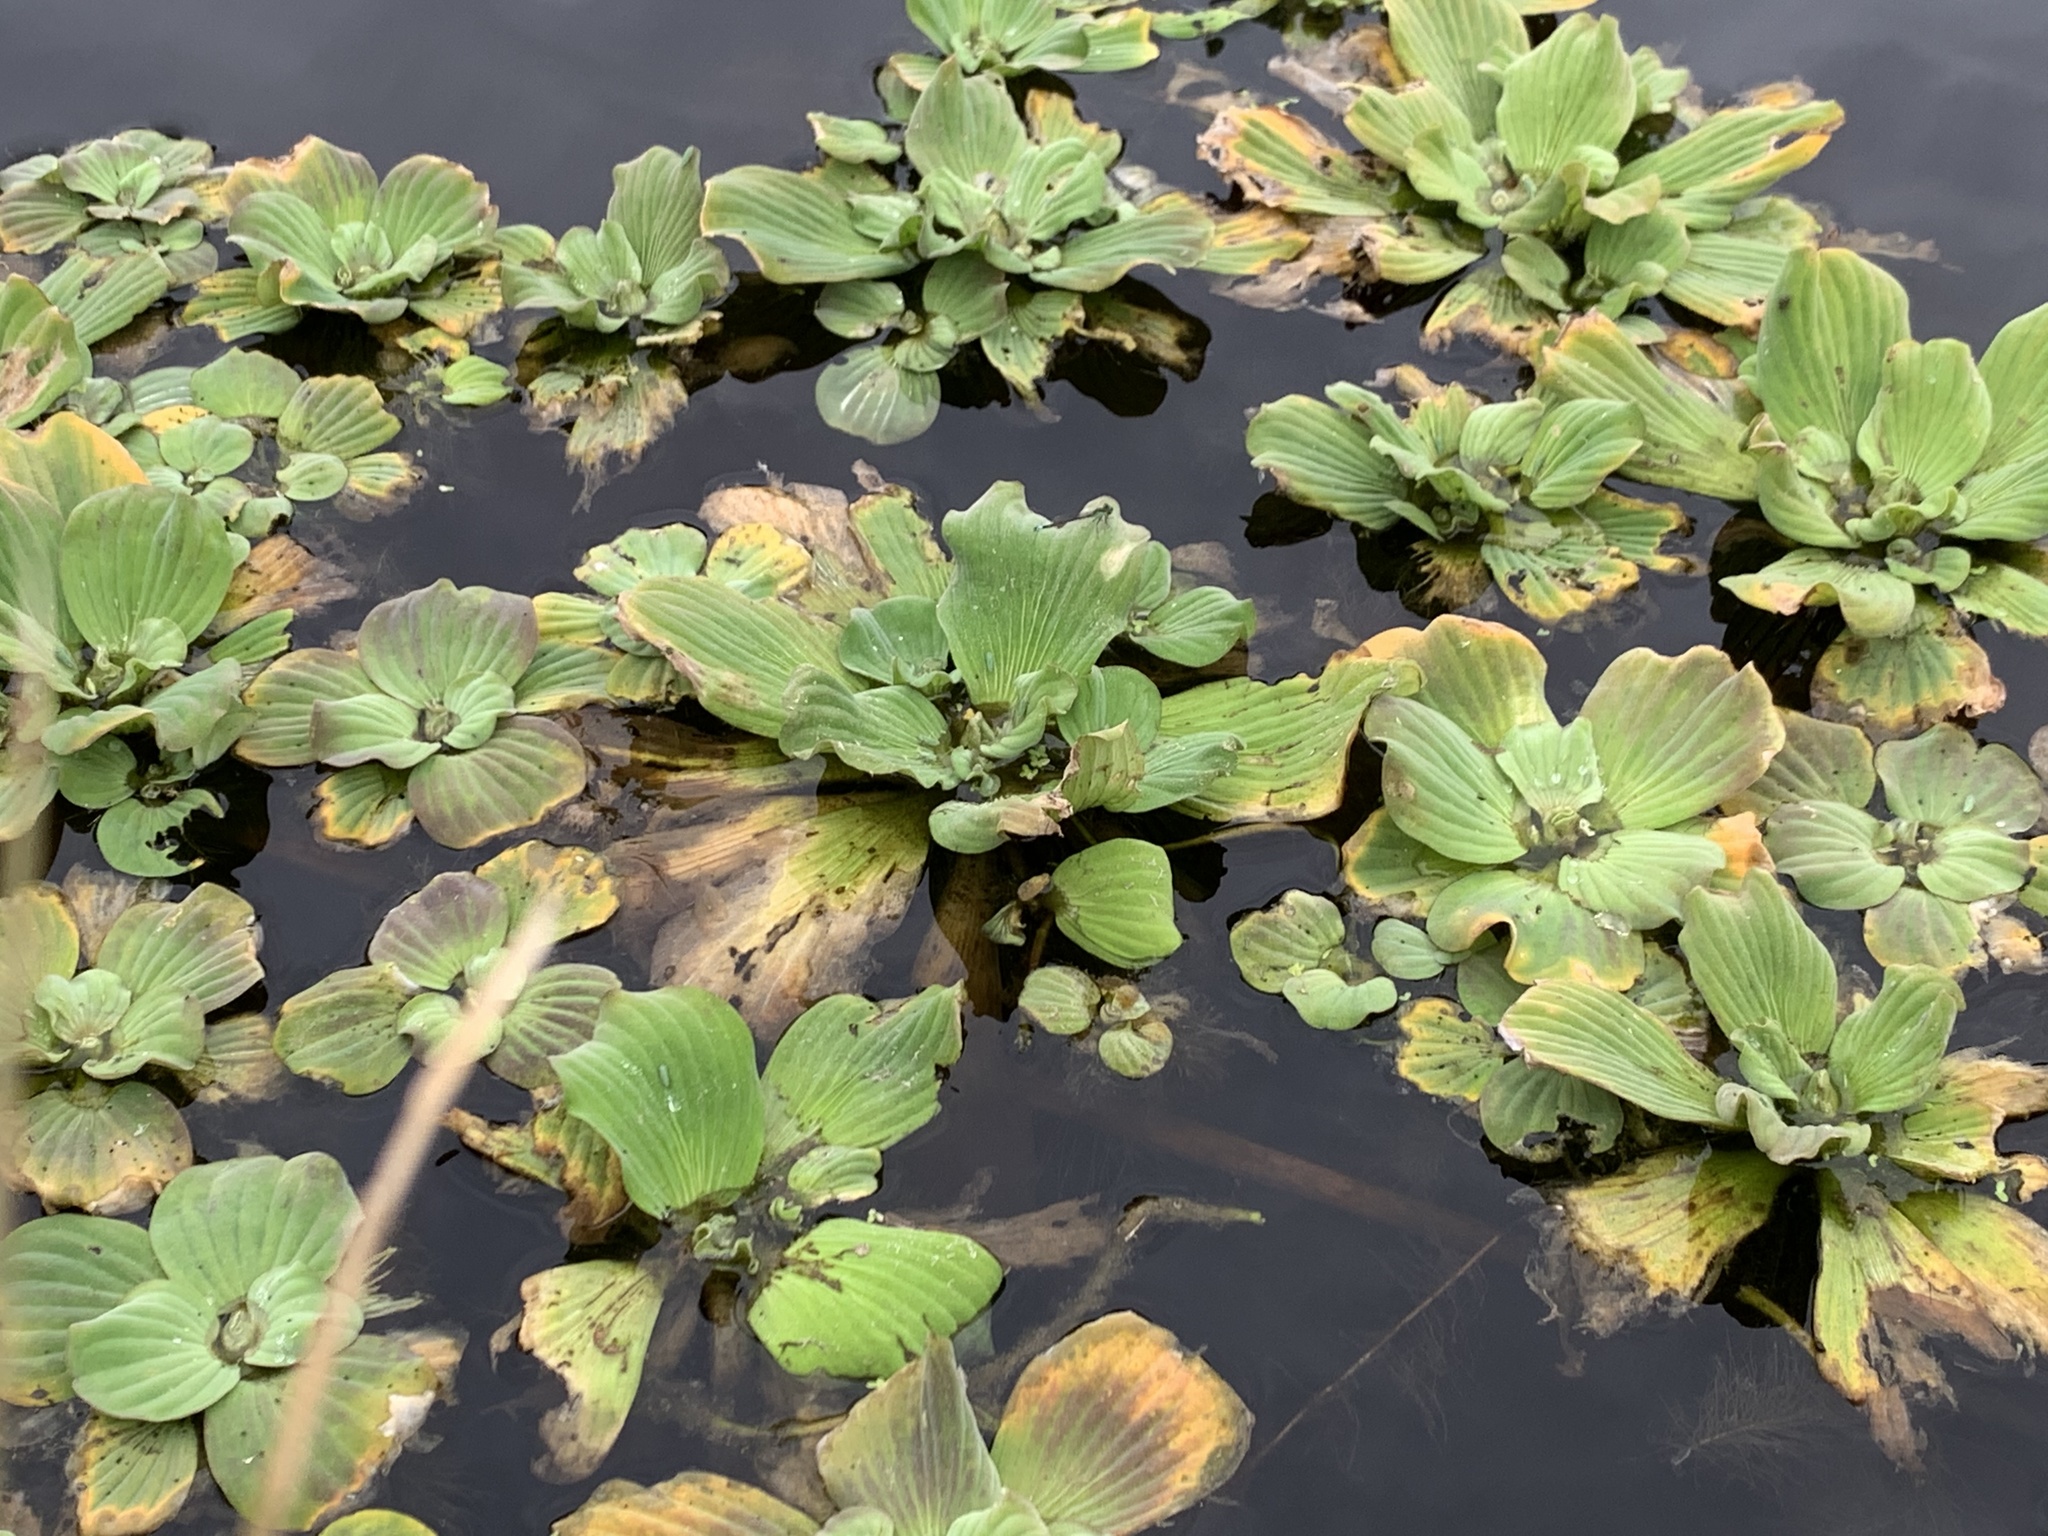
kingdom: Plantae
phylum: Tracheophyta
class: Liliopsida
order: Alismatales
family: Araceae
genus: Pistia
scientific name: Pistia stratiotes
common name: Water lettuce
